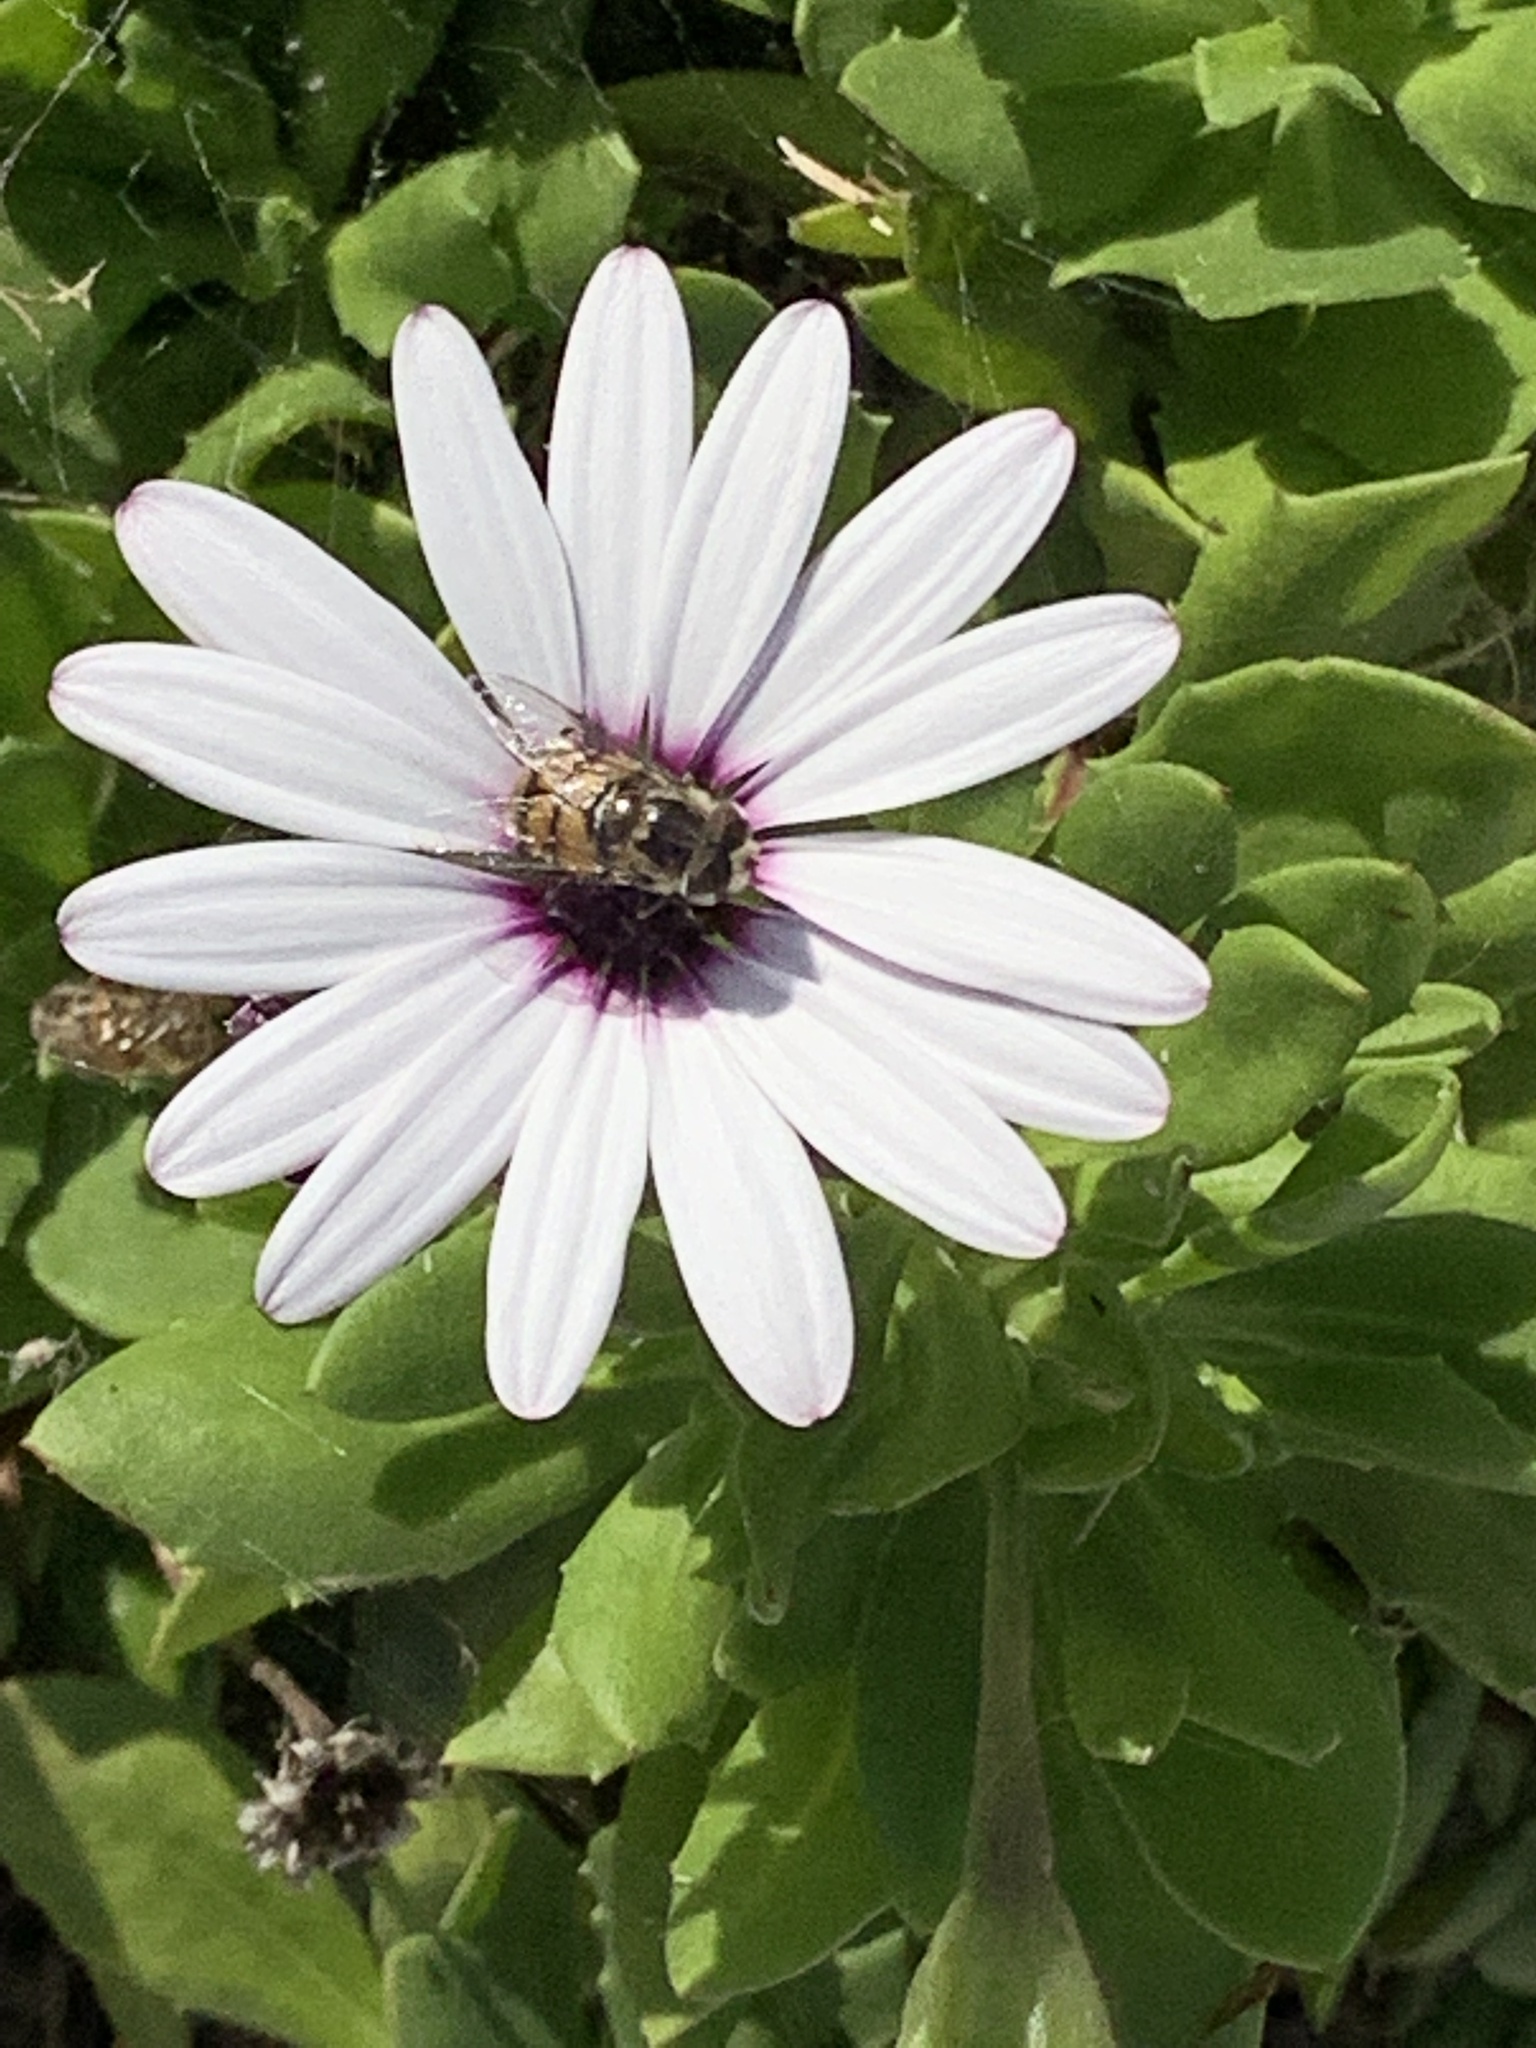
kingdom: Animalia
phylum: Arthropoda
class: Insecta
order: Diptera
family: Syrphidae
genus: Copestylum
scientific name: Copestylum avidum
